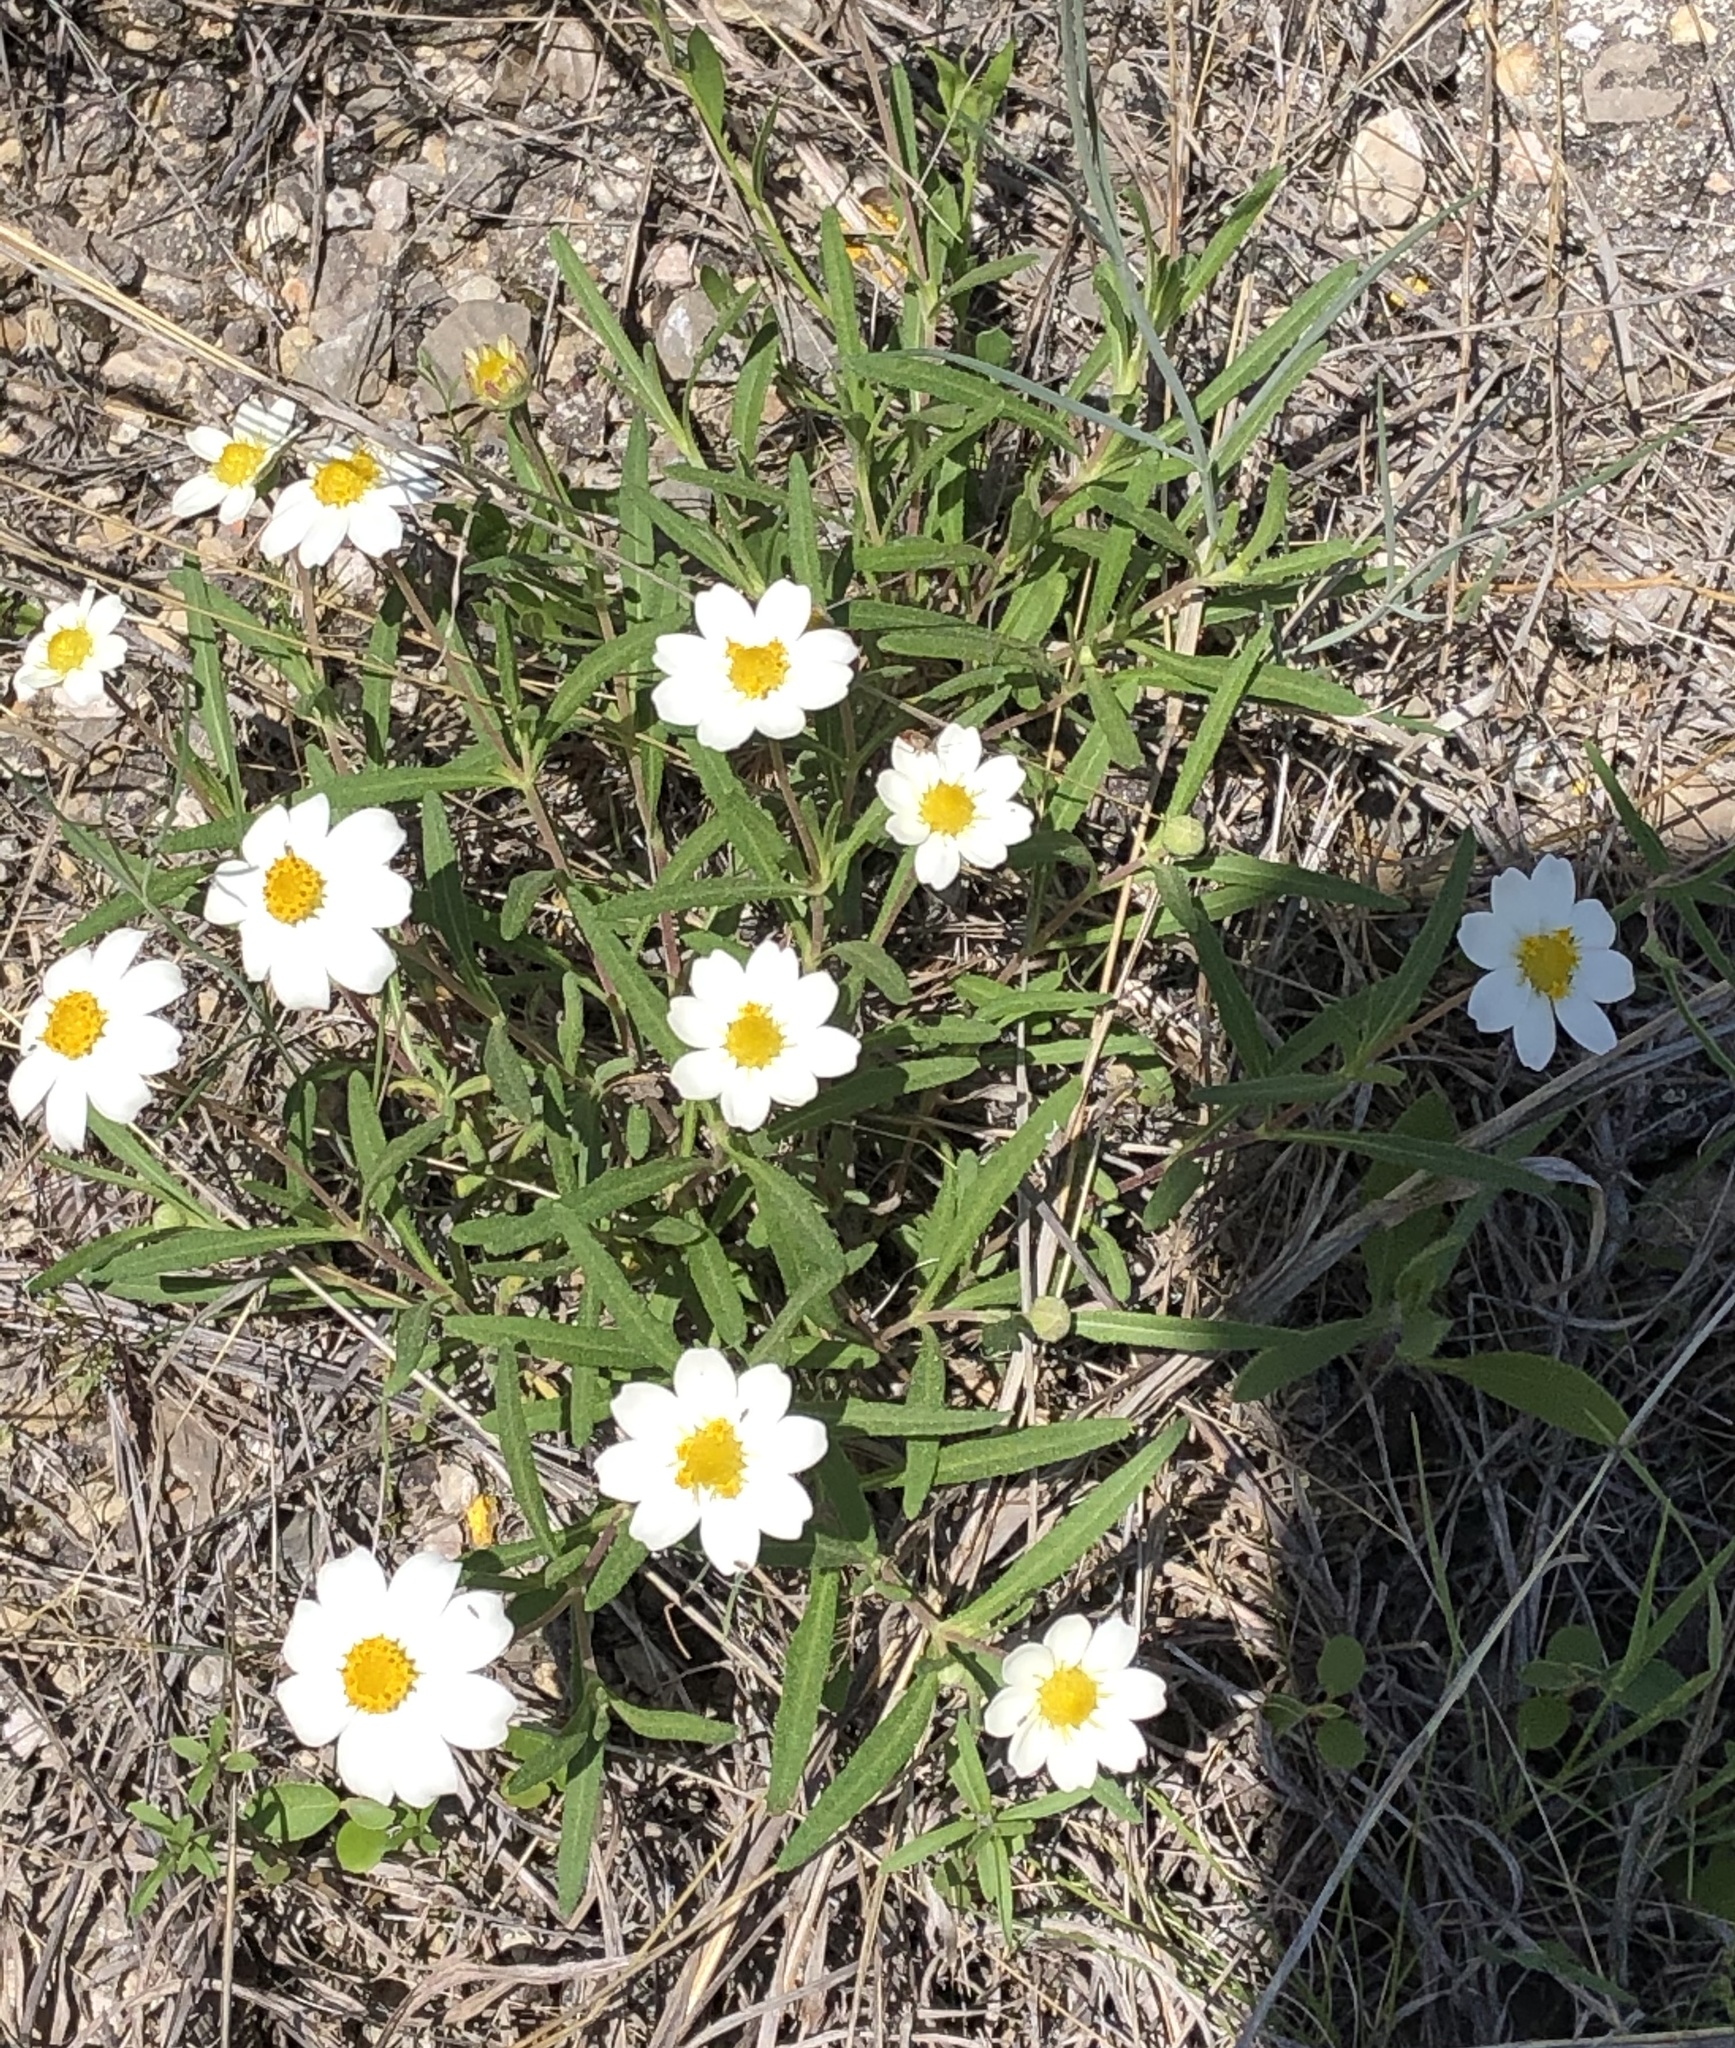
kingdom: Plantae
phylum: Tracheophyta
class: Magnoliopsida
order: Asterales
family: Asteraceae
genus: Melampodium
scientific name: Melampodium leucanthum
